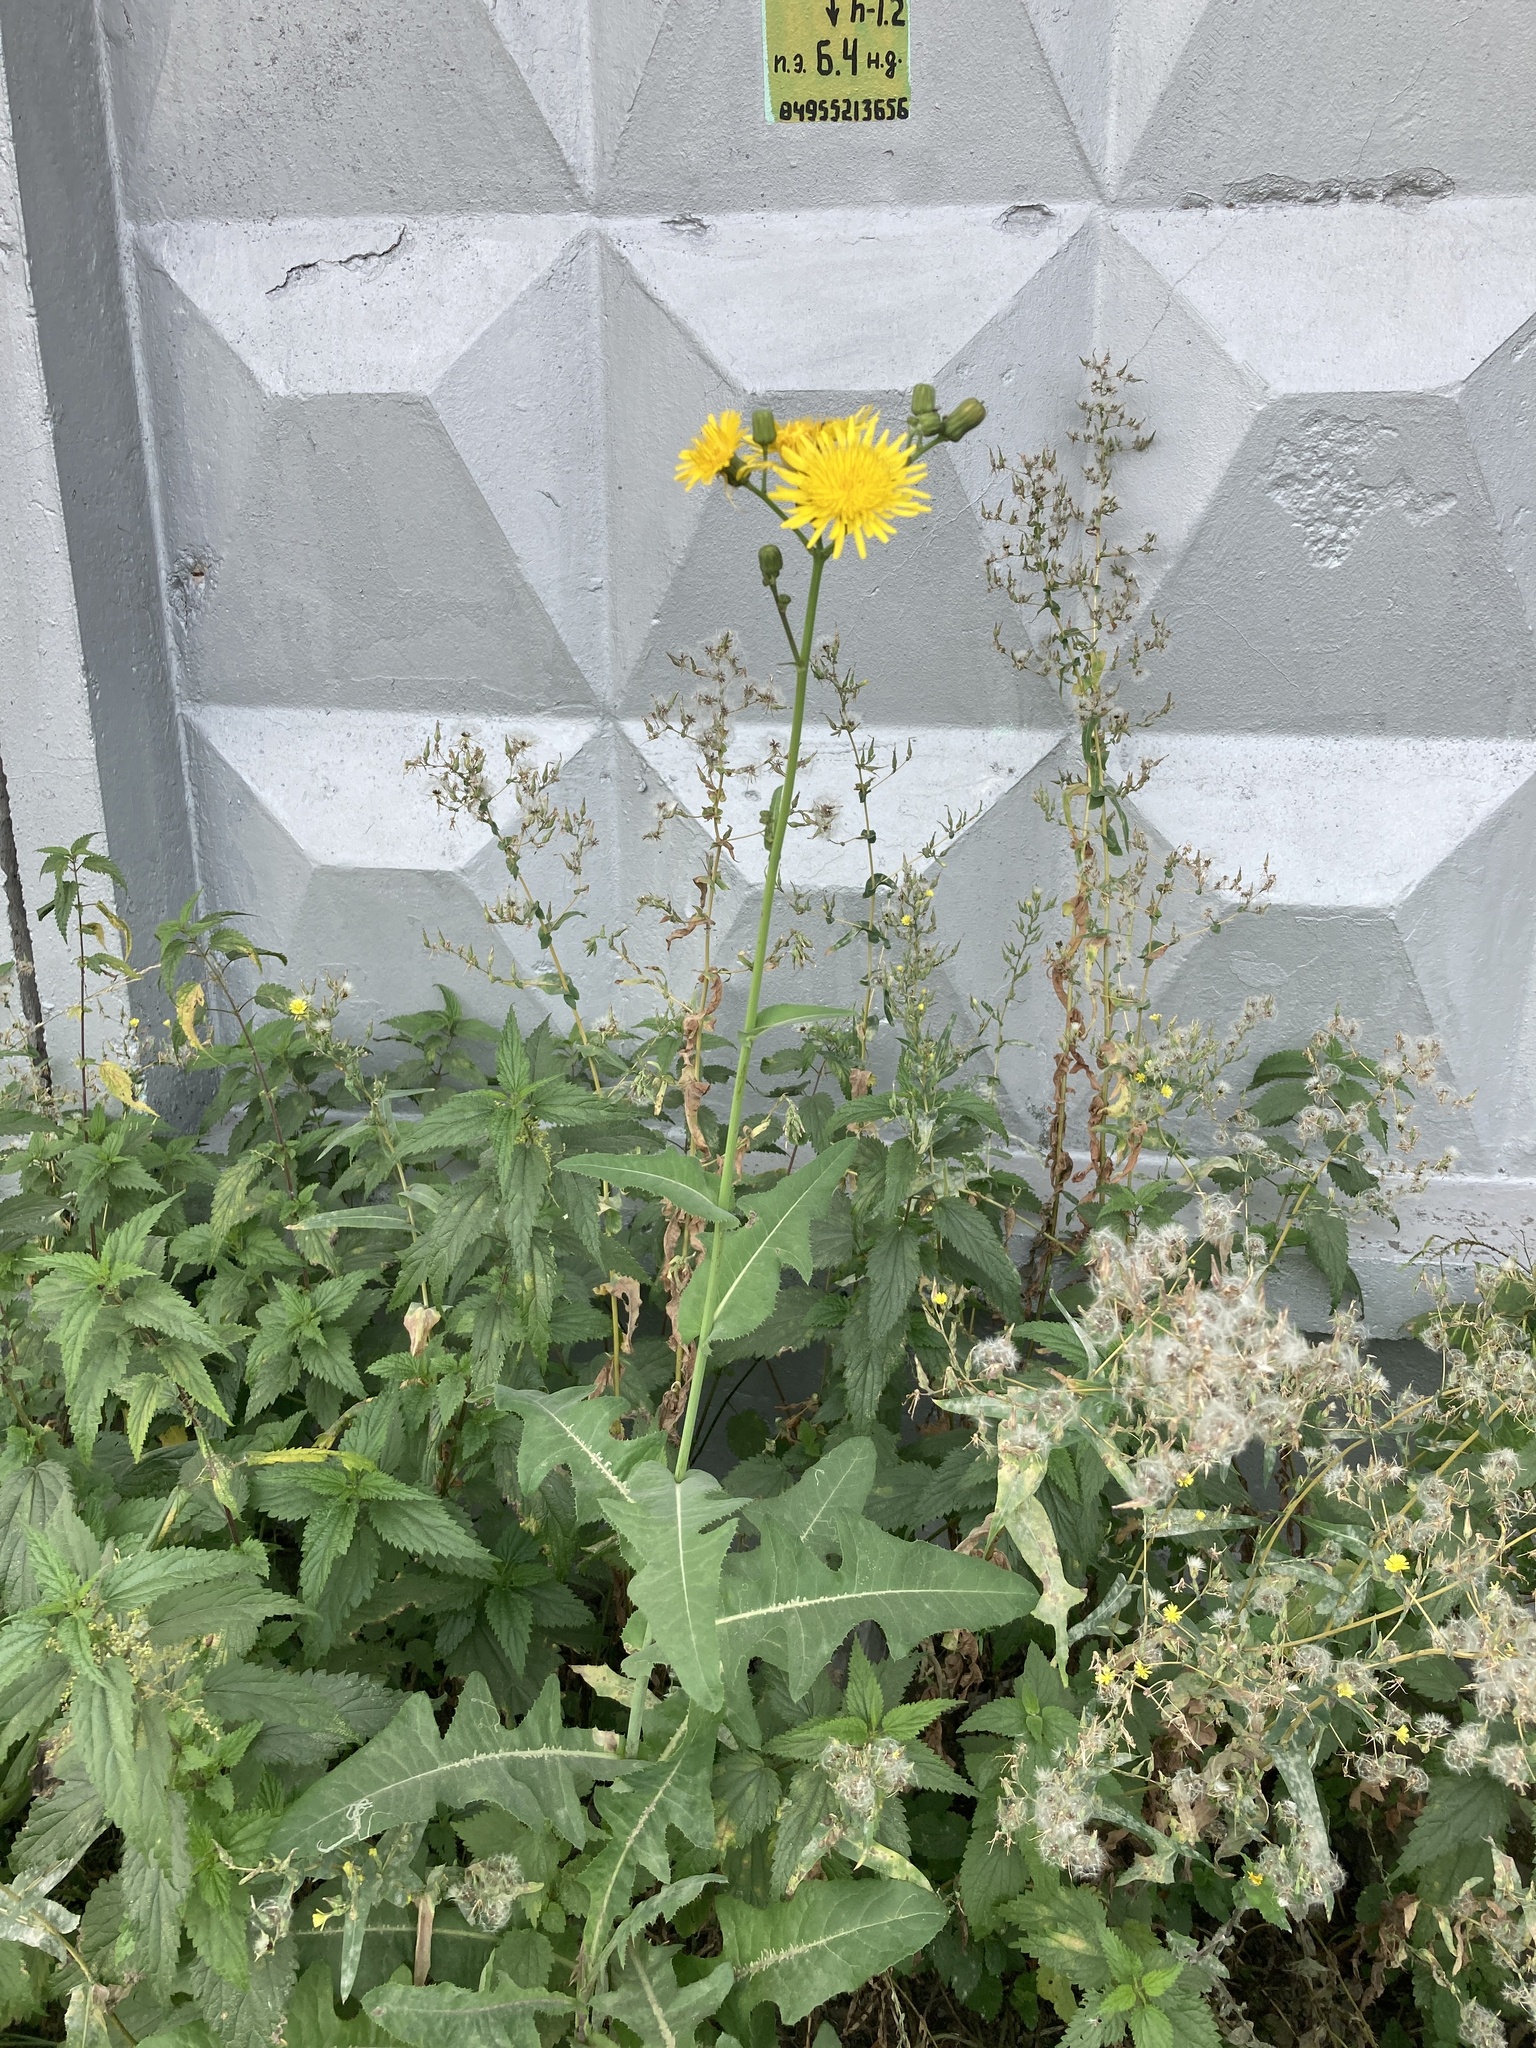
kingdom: Plantae
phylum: Tracheophyta
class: Magnoliopsida
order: Asterales
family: Asteraceae
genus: Sonchus
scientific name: Sonchus arvensis
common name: Perennial sow-thistle
